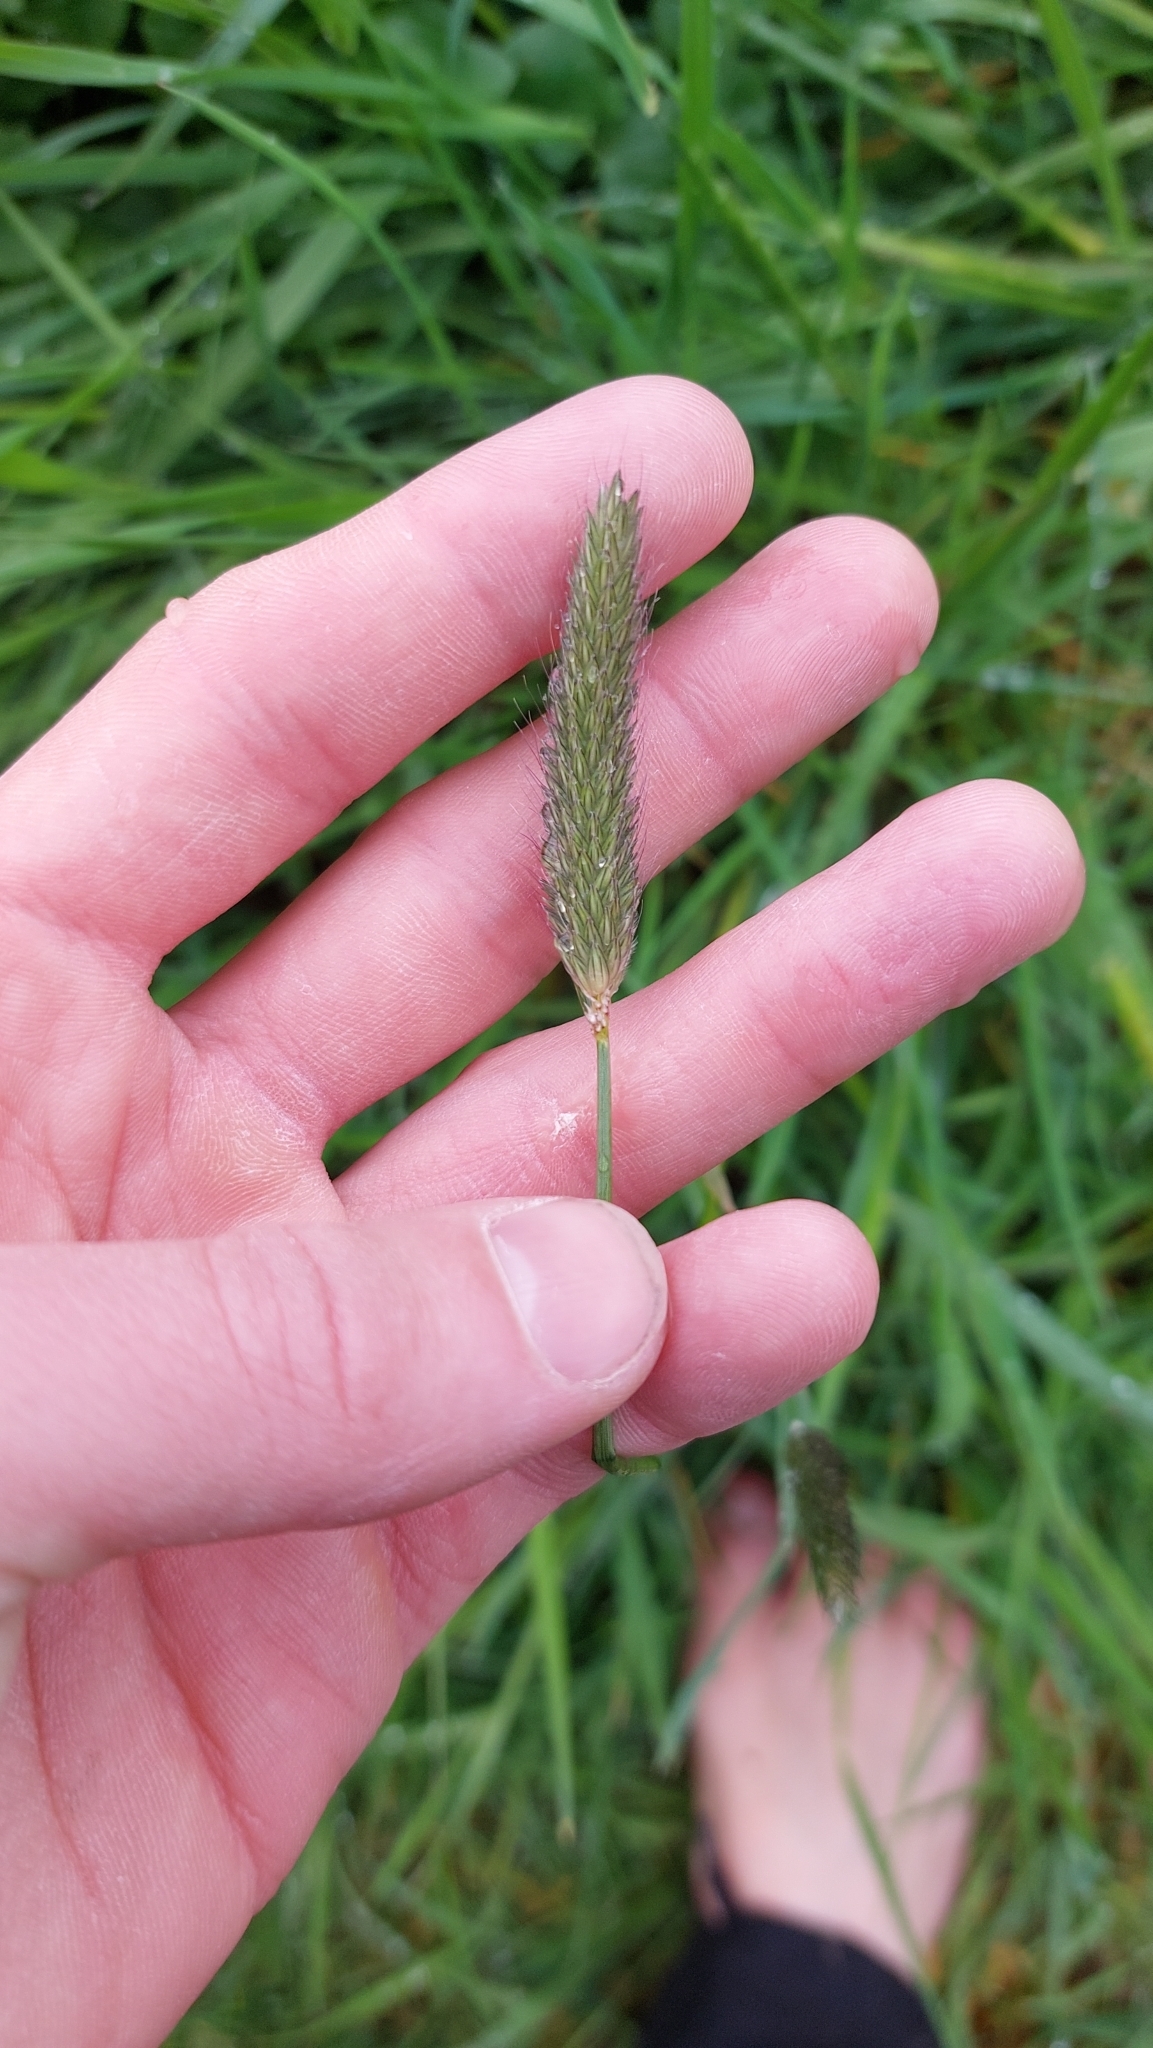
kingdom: Plantae
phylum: Tracheophyta
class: Liliopsida
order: Poales
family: Poaceae
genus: Alopecurus
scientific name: Alopecurus pratensis
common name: Meadow foxtail
